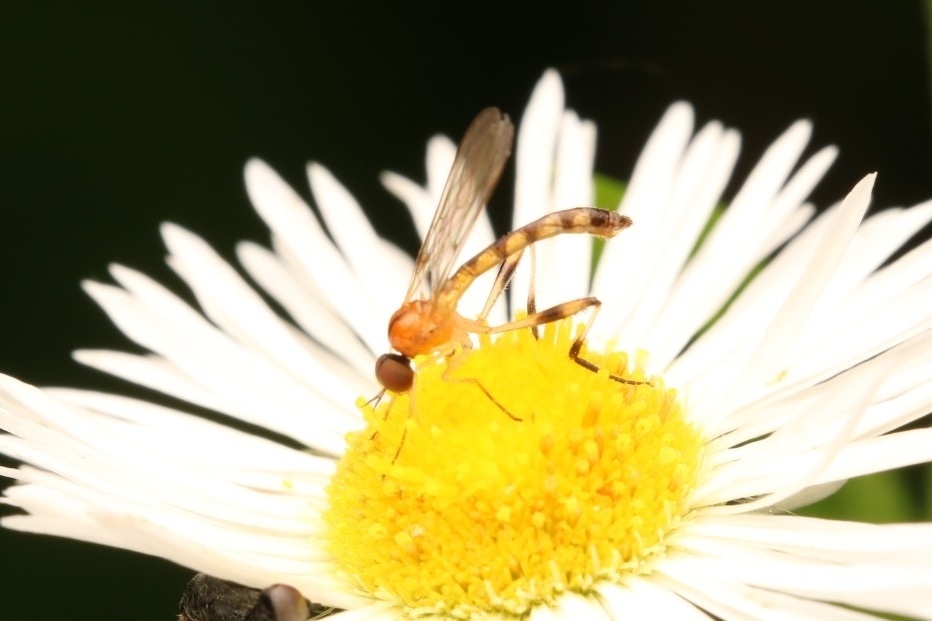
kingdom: Animalia
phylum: Arthropoda
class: Insecta
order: Diptera
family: Empididae
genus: Empis
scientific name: Empis leptogastra
